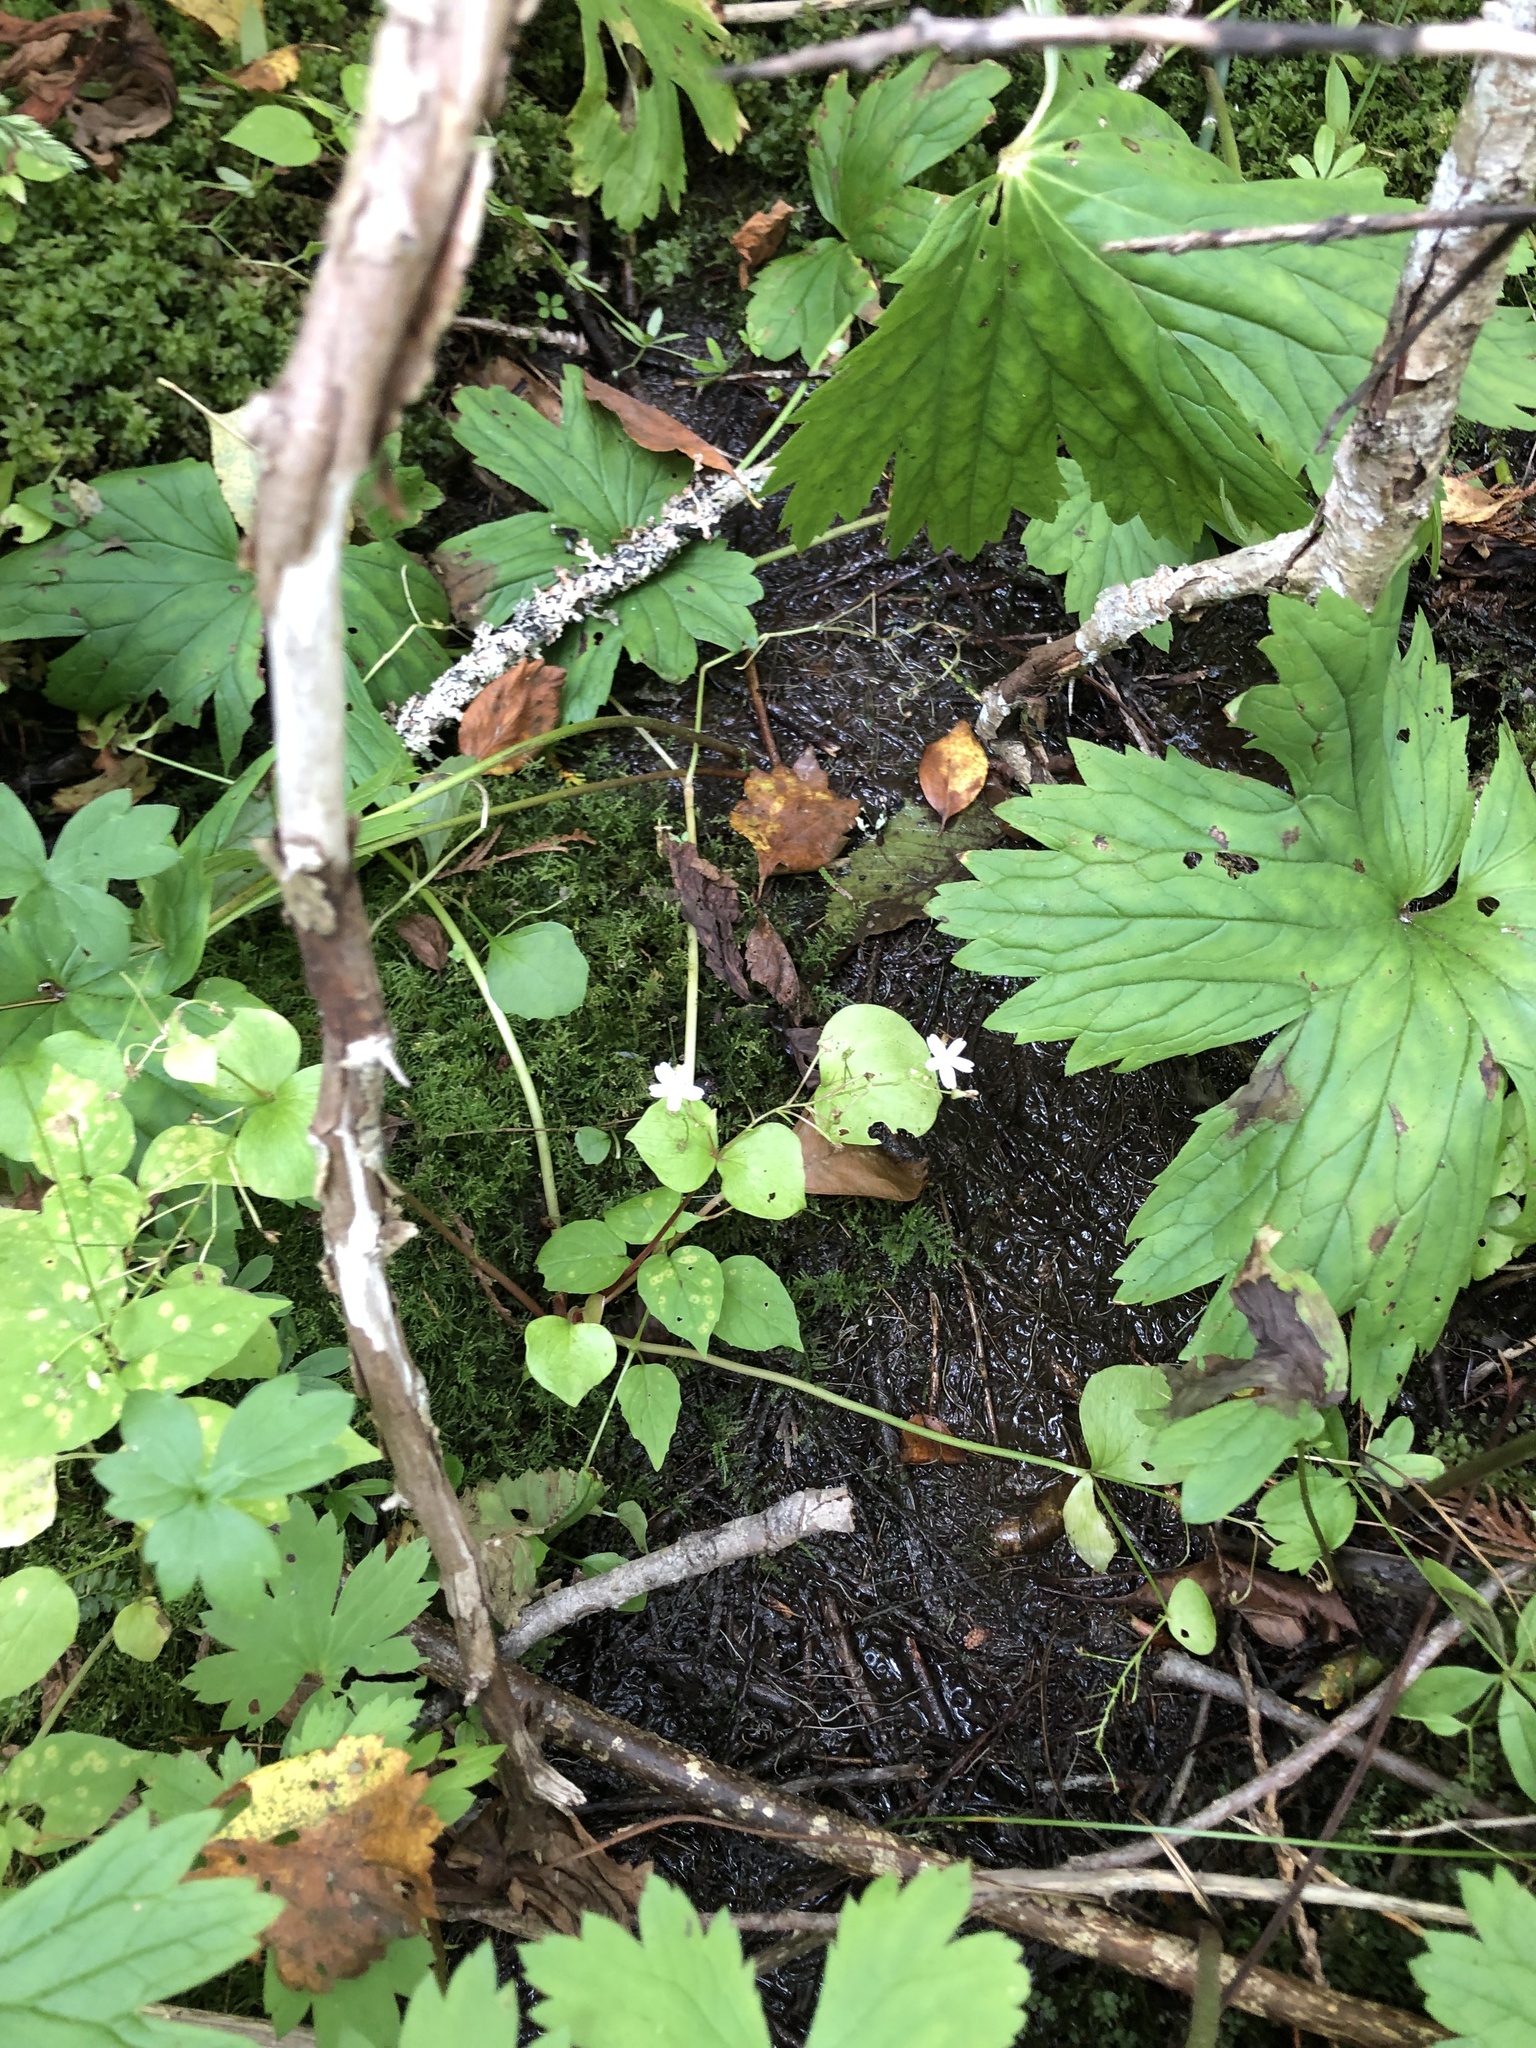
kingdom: Plantae
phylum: Tracheophyta
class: Magnoliopsida
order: Caryophyllales
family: Montiaceae
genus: Claytonia
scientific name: Claytonia sibirica
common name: Pink purslane
